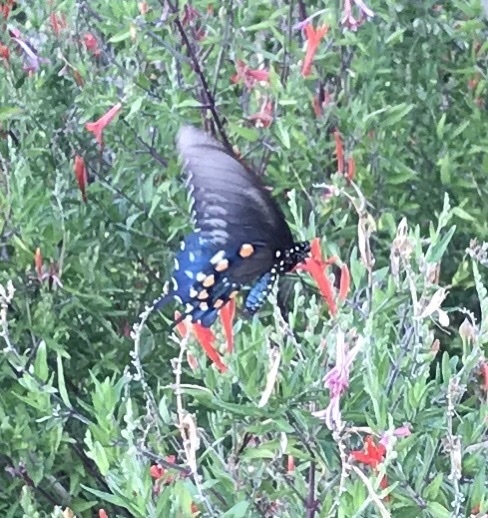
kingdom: Animalia
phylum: Arthropoda
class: Insecta
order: Lepidoptera
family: Papilionidae
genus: Battus
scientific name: Battus philenor
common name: Pipevine swallowtail
